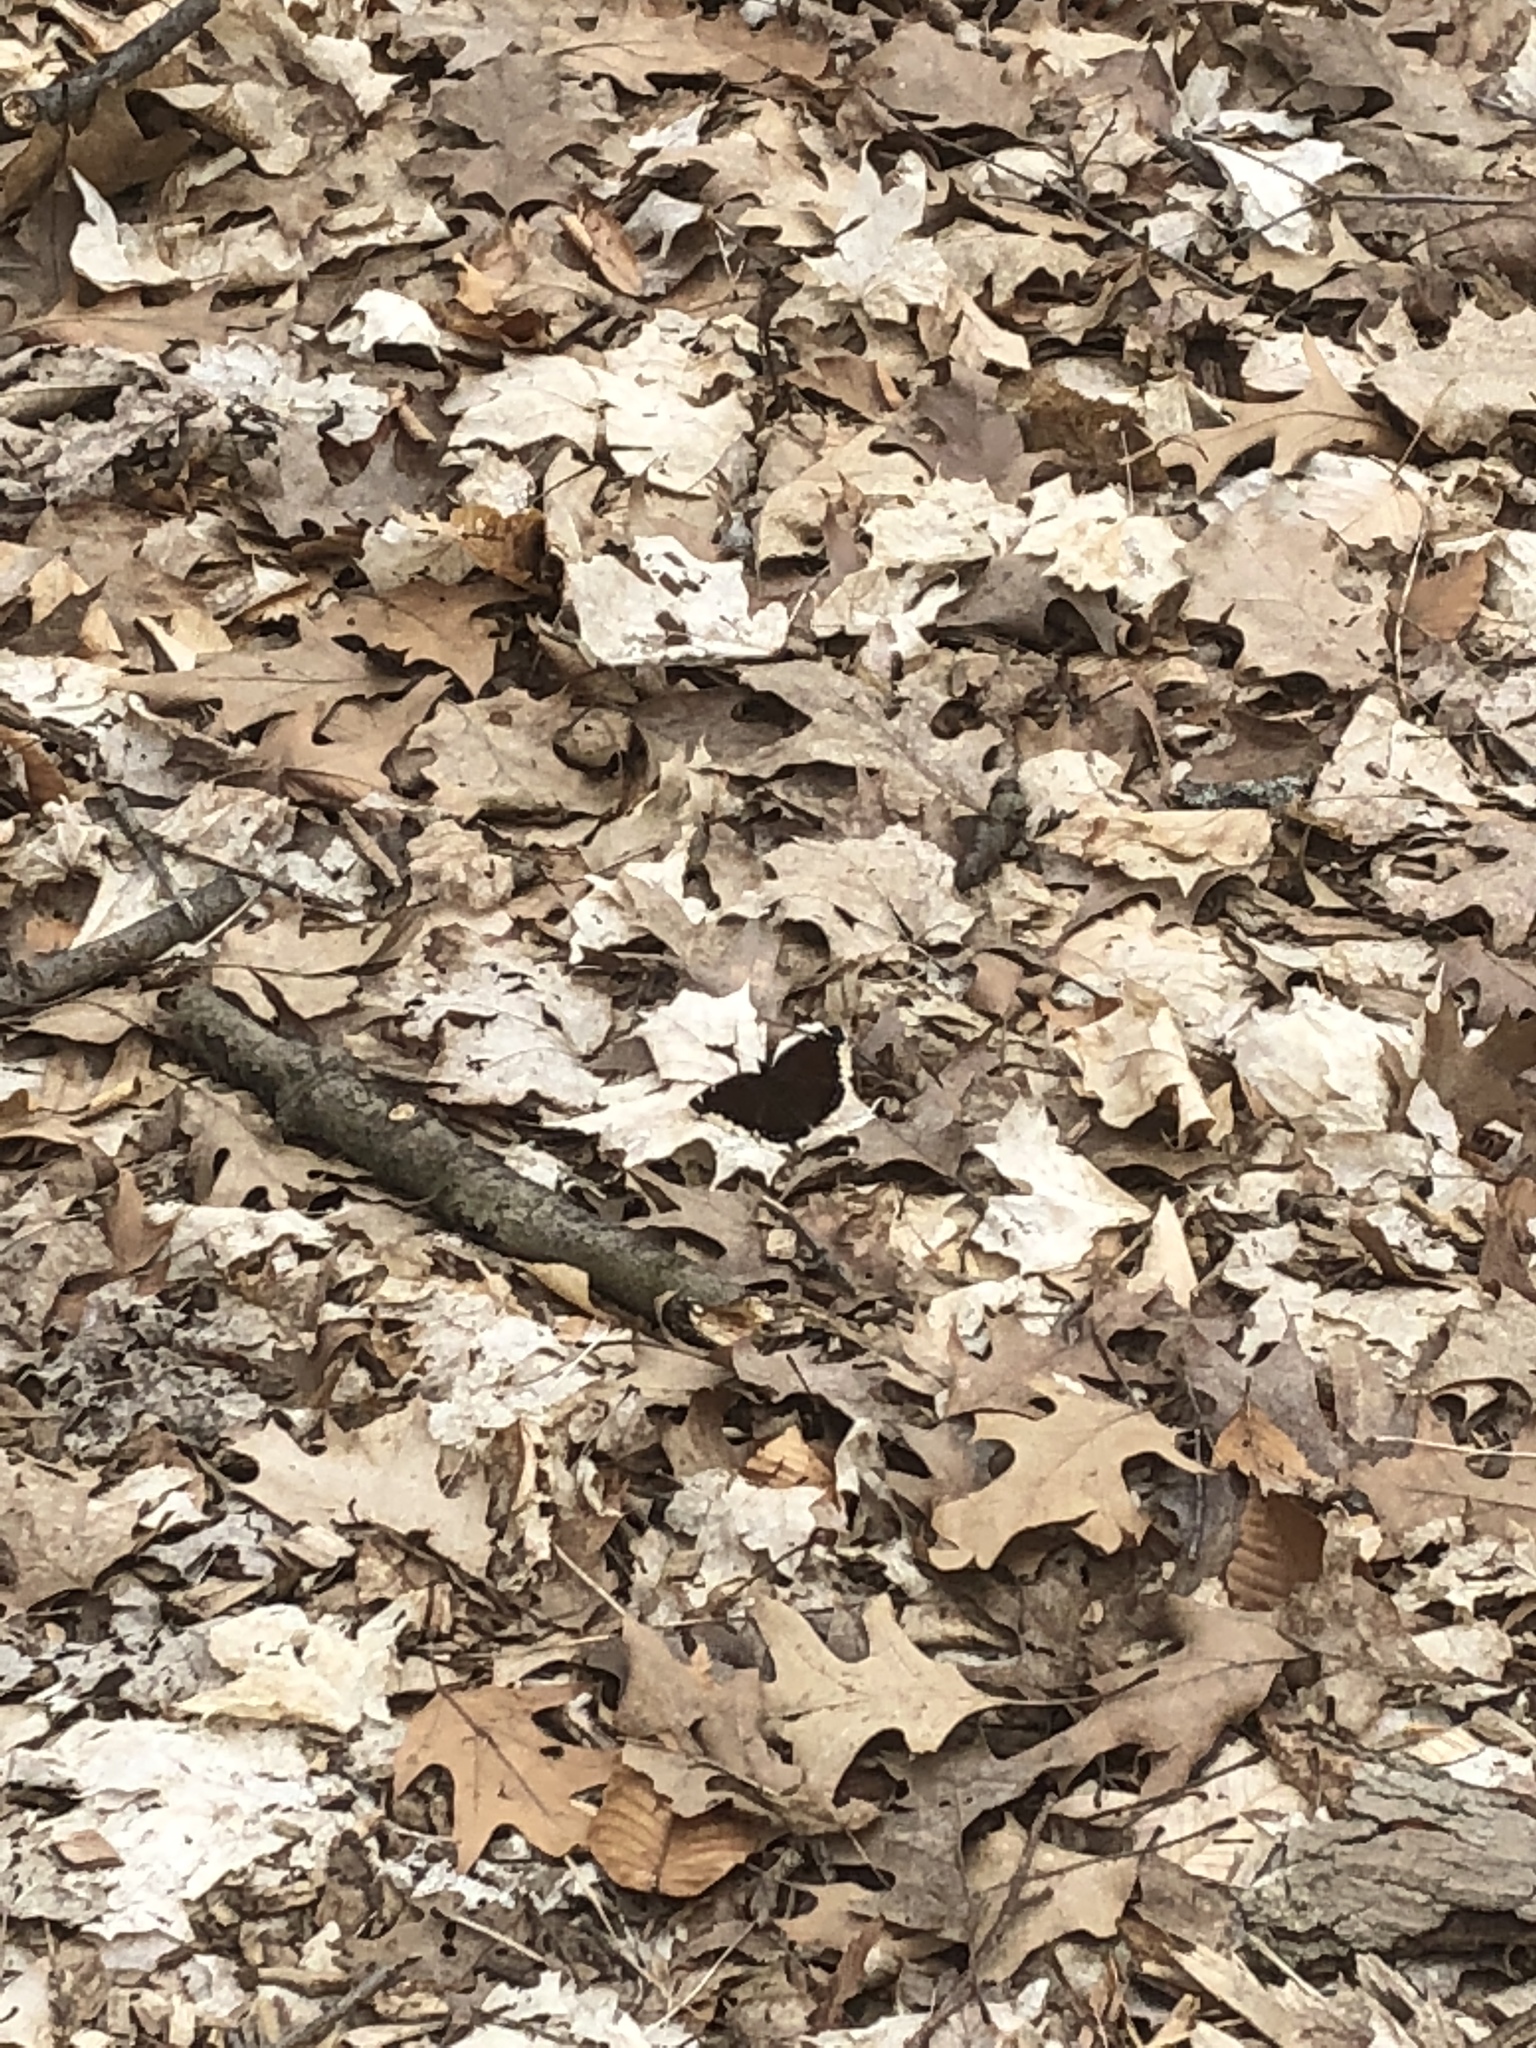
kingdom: Animalia
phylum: Arthropoda
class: Insecta
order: Lepidoptera
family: Nymphalidae
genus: Nymphalis
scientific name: Nymphalis antiopa
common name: Camberwell beauty
